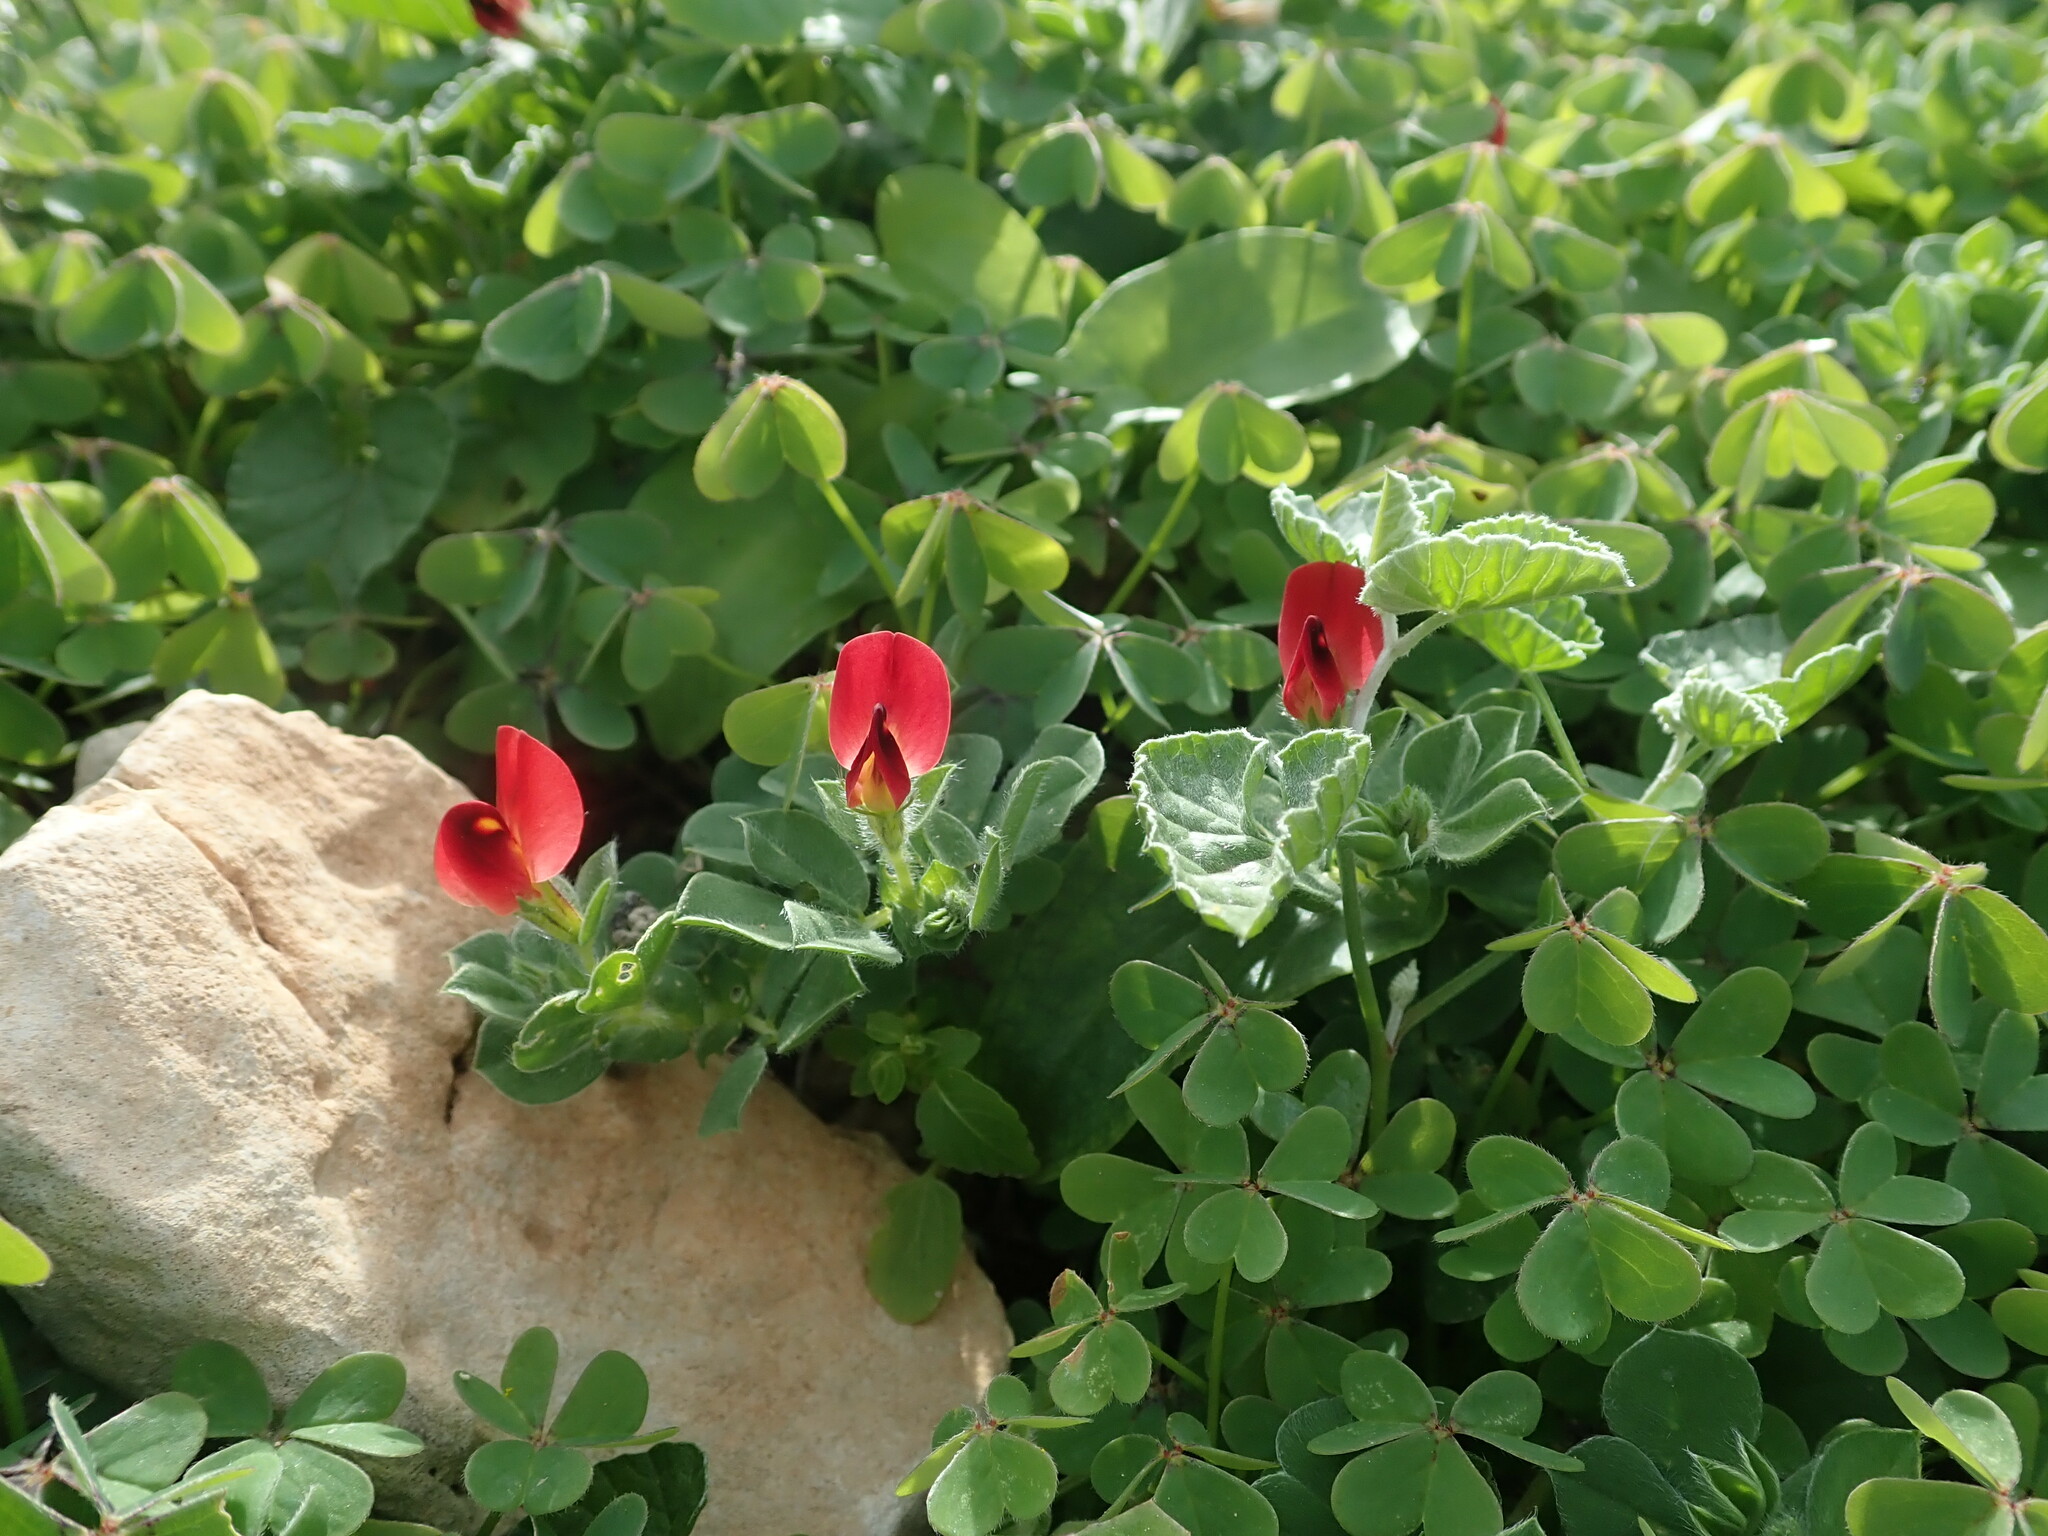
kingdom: Plantae
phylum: Tracheophyta
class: Magnoliopsida
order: Fabales
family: Fabaceae
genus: Lotus
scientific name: Lotus tetragonolobus
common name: Asparagus-pea
